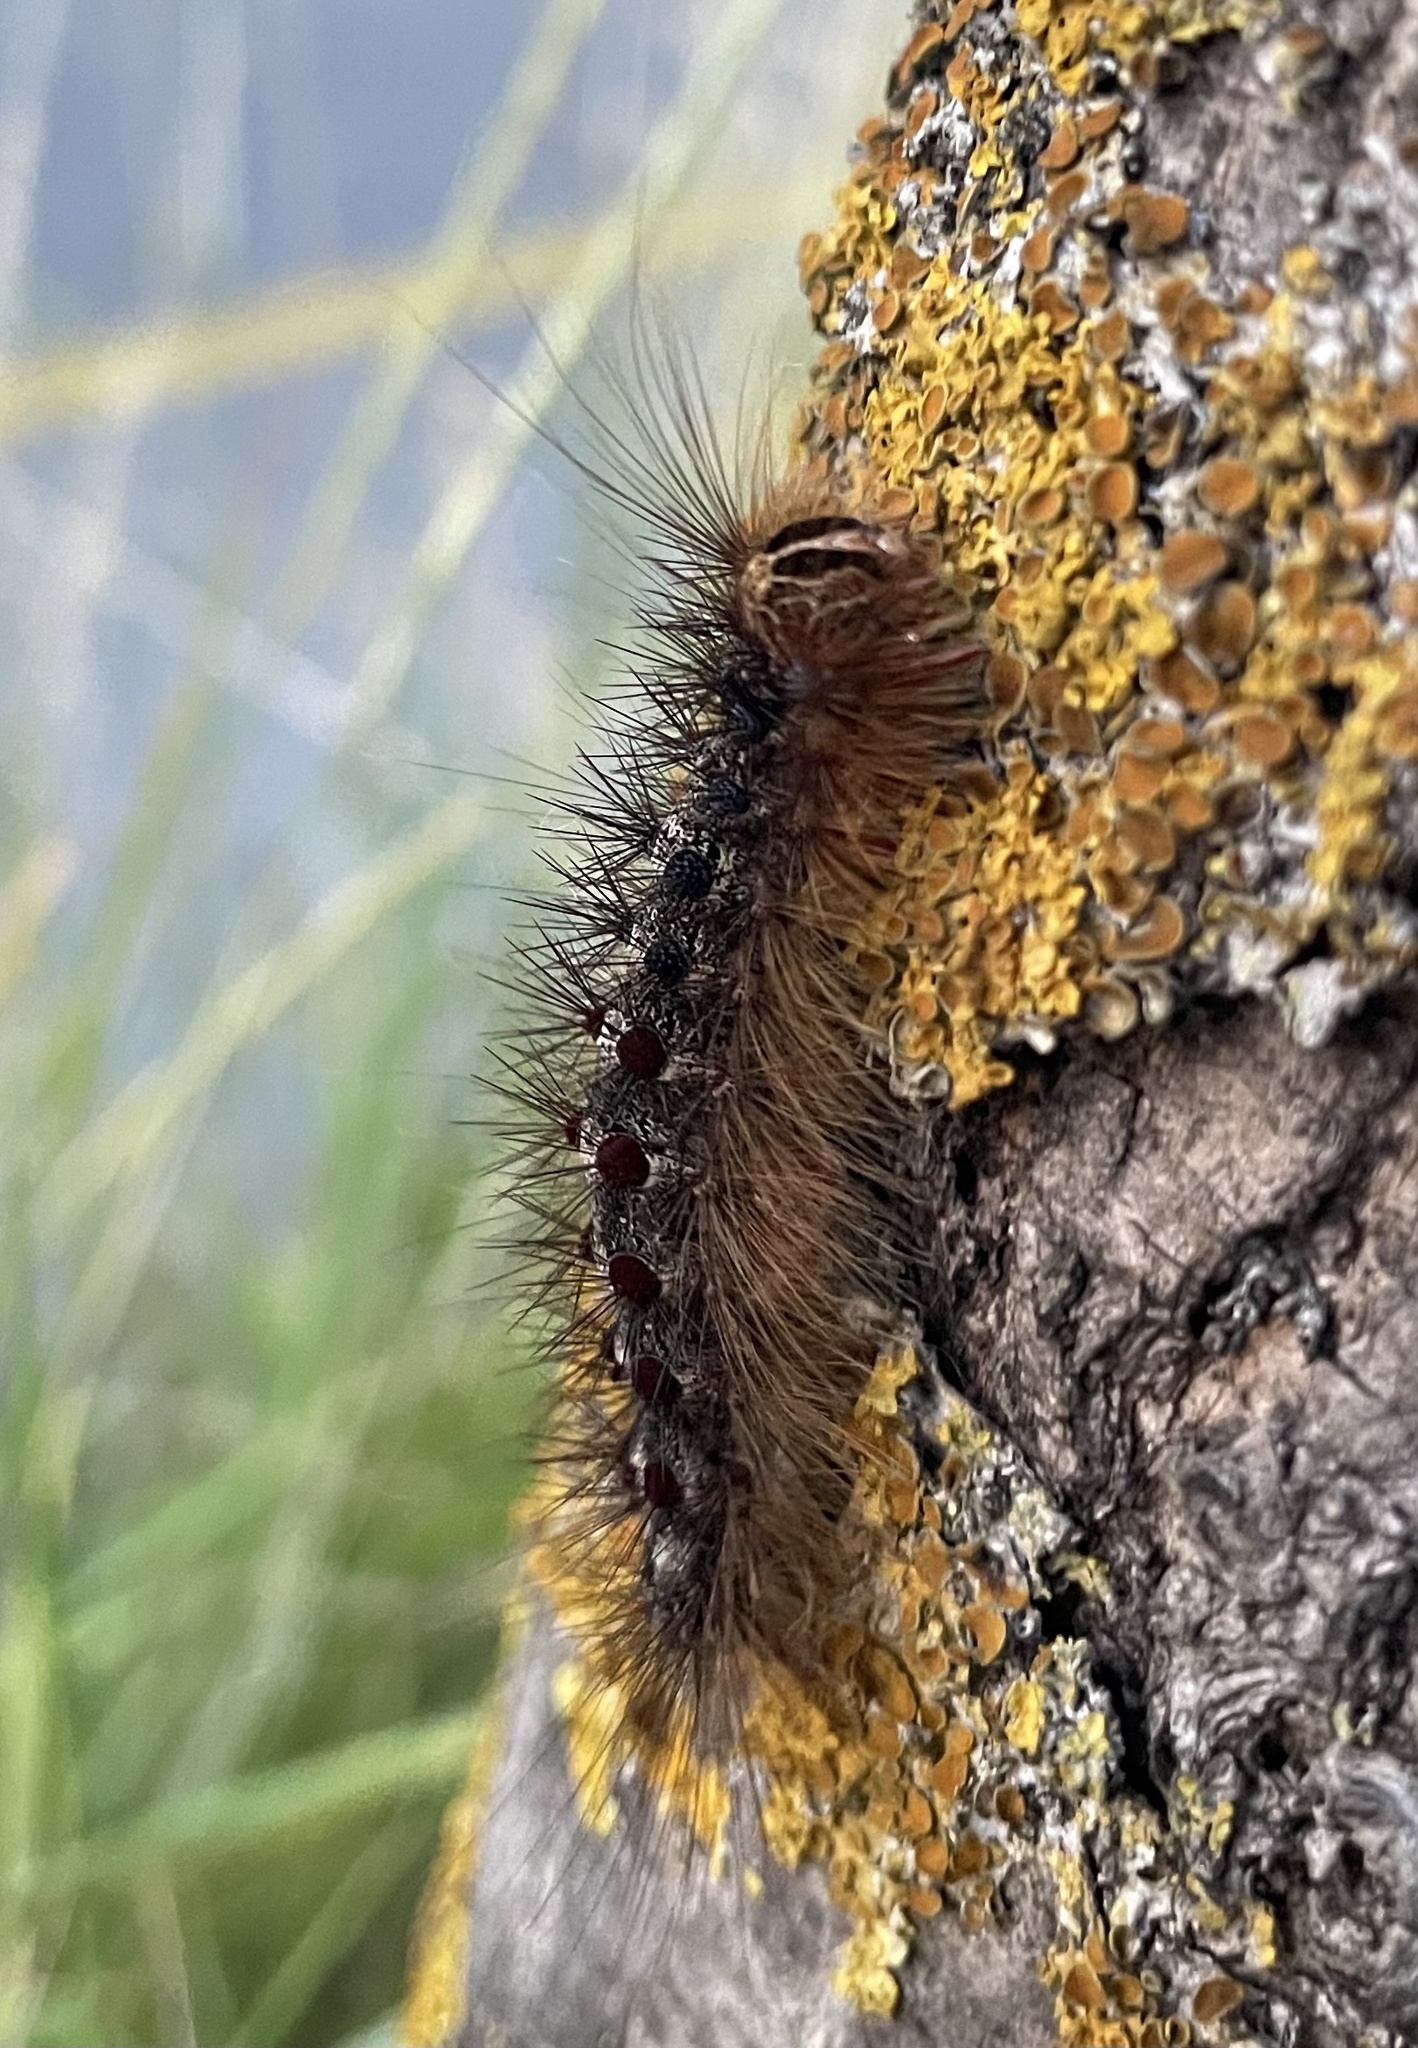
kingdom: Animalia
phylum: Arthropoda
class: Insecta
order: Lepidoptera
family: Erebidae
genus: Lymantria
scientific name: Lymantria dispar
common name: Gypsy moth
